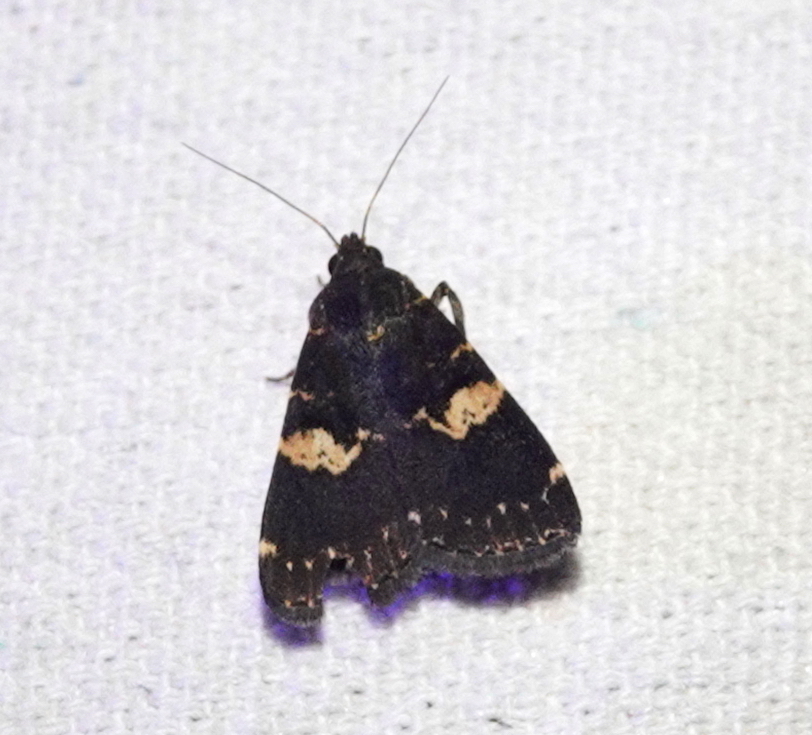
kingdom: Animalia
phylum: Arthropoda
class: Insecta
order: Lepidoptera
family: Erebidae
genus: Hydrillodes
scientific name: Hydrillodes gravatalis
